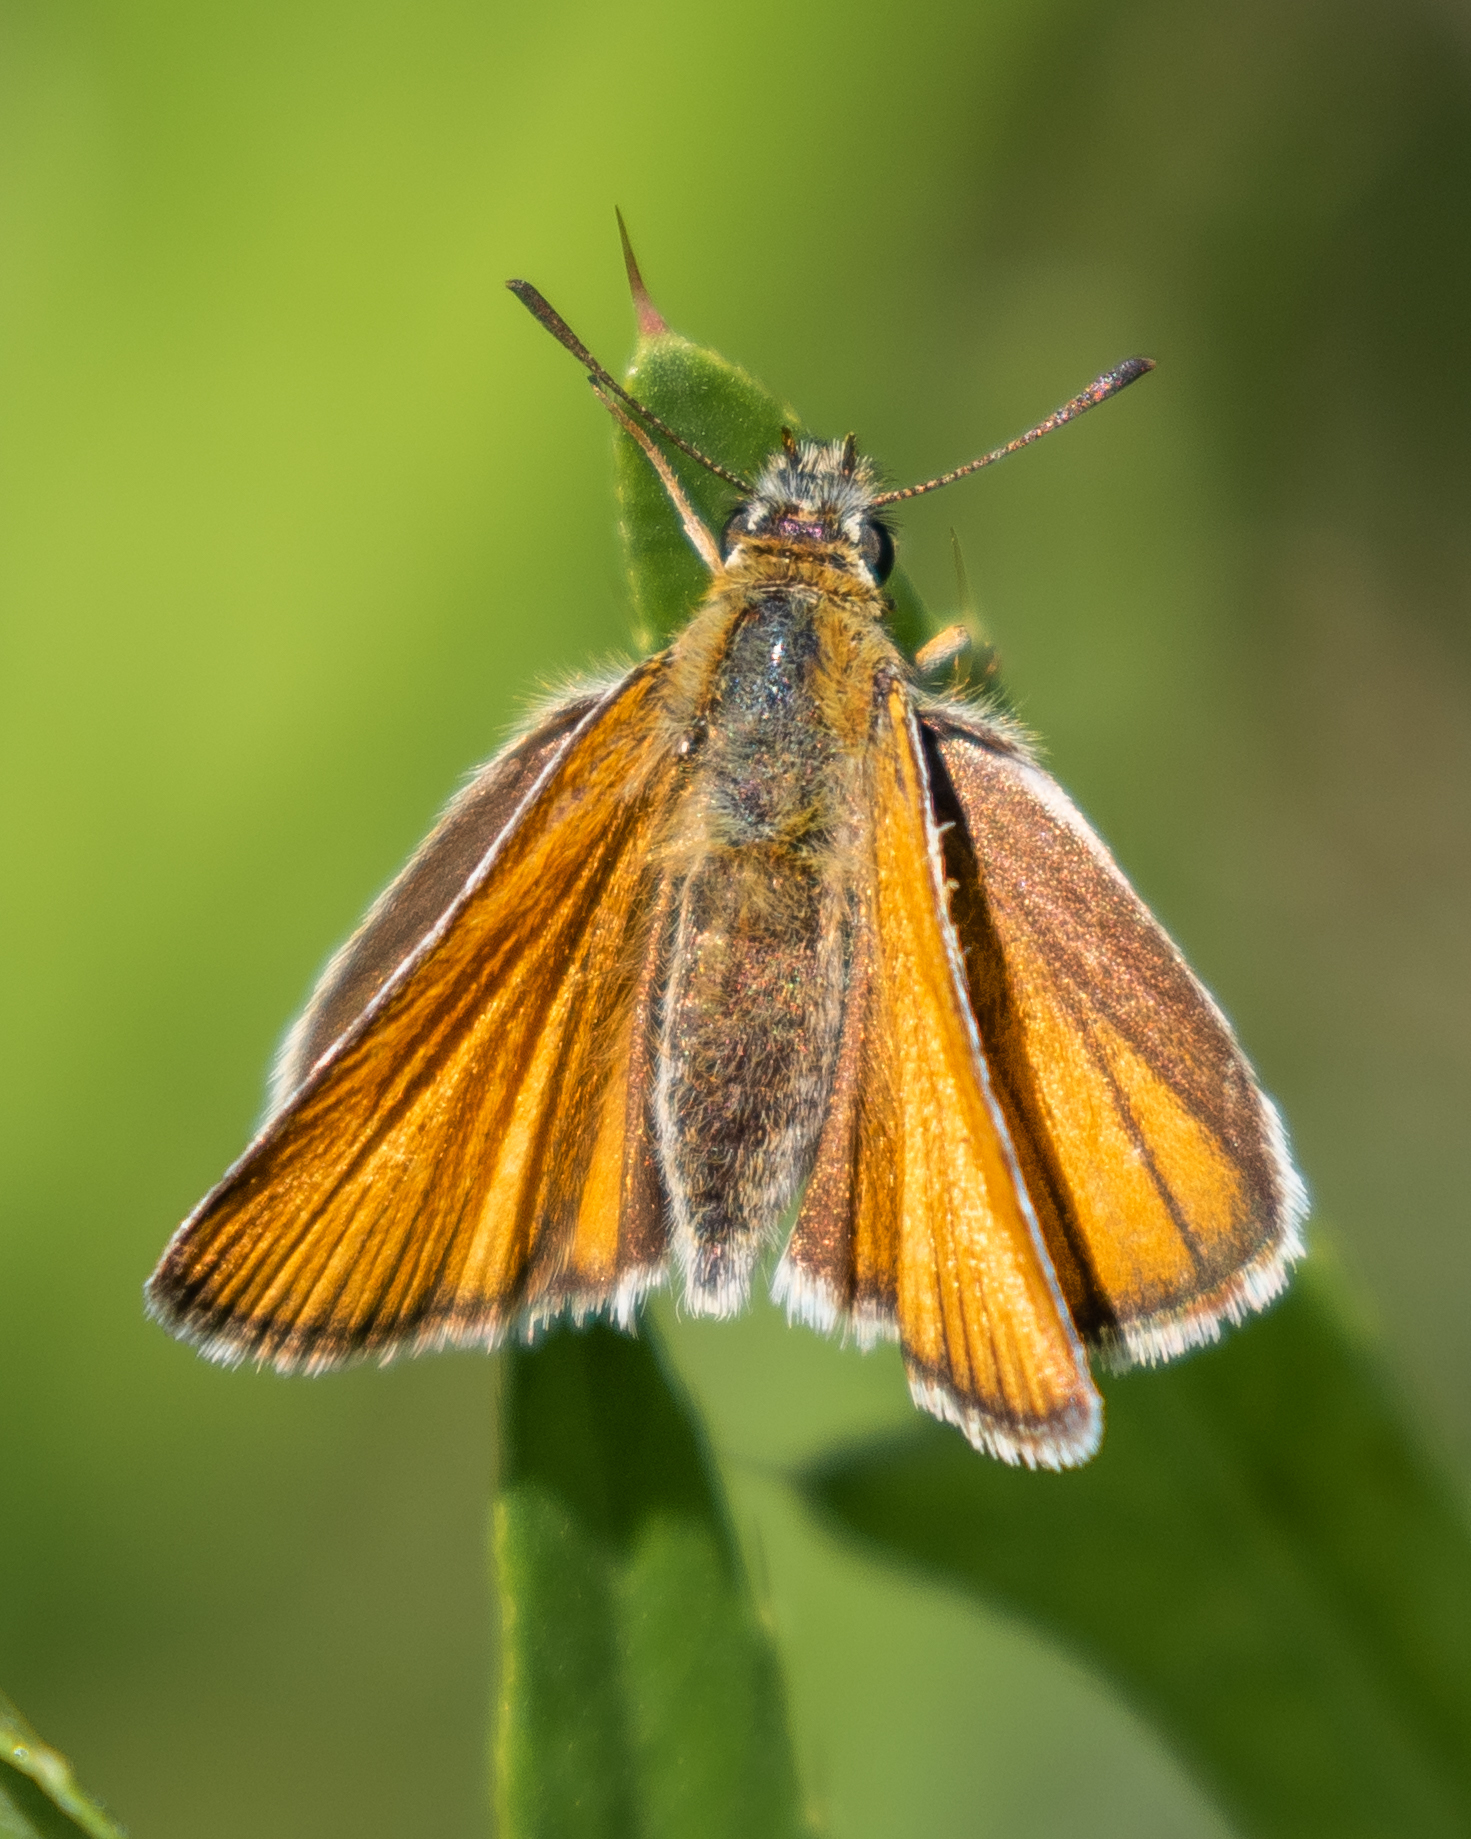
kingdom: Animalia
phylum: Arthropoda
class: Insecta
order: Lepidoptera
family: Hesperiidae
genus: Thymelicus
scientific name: Thymelicus lineola
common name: Essex skipper
